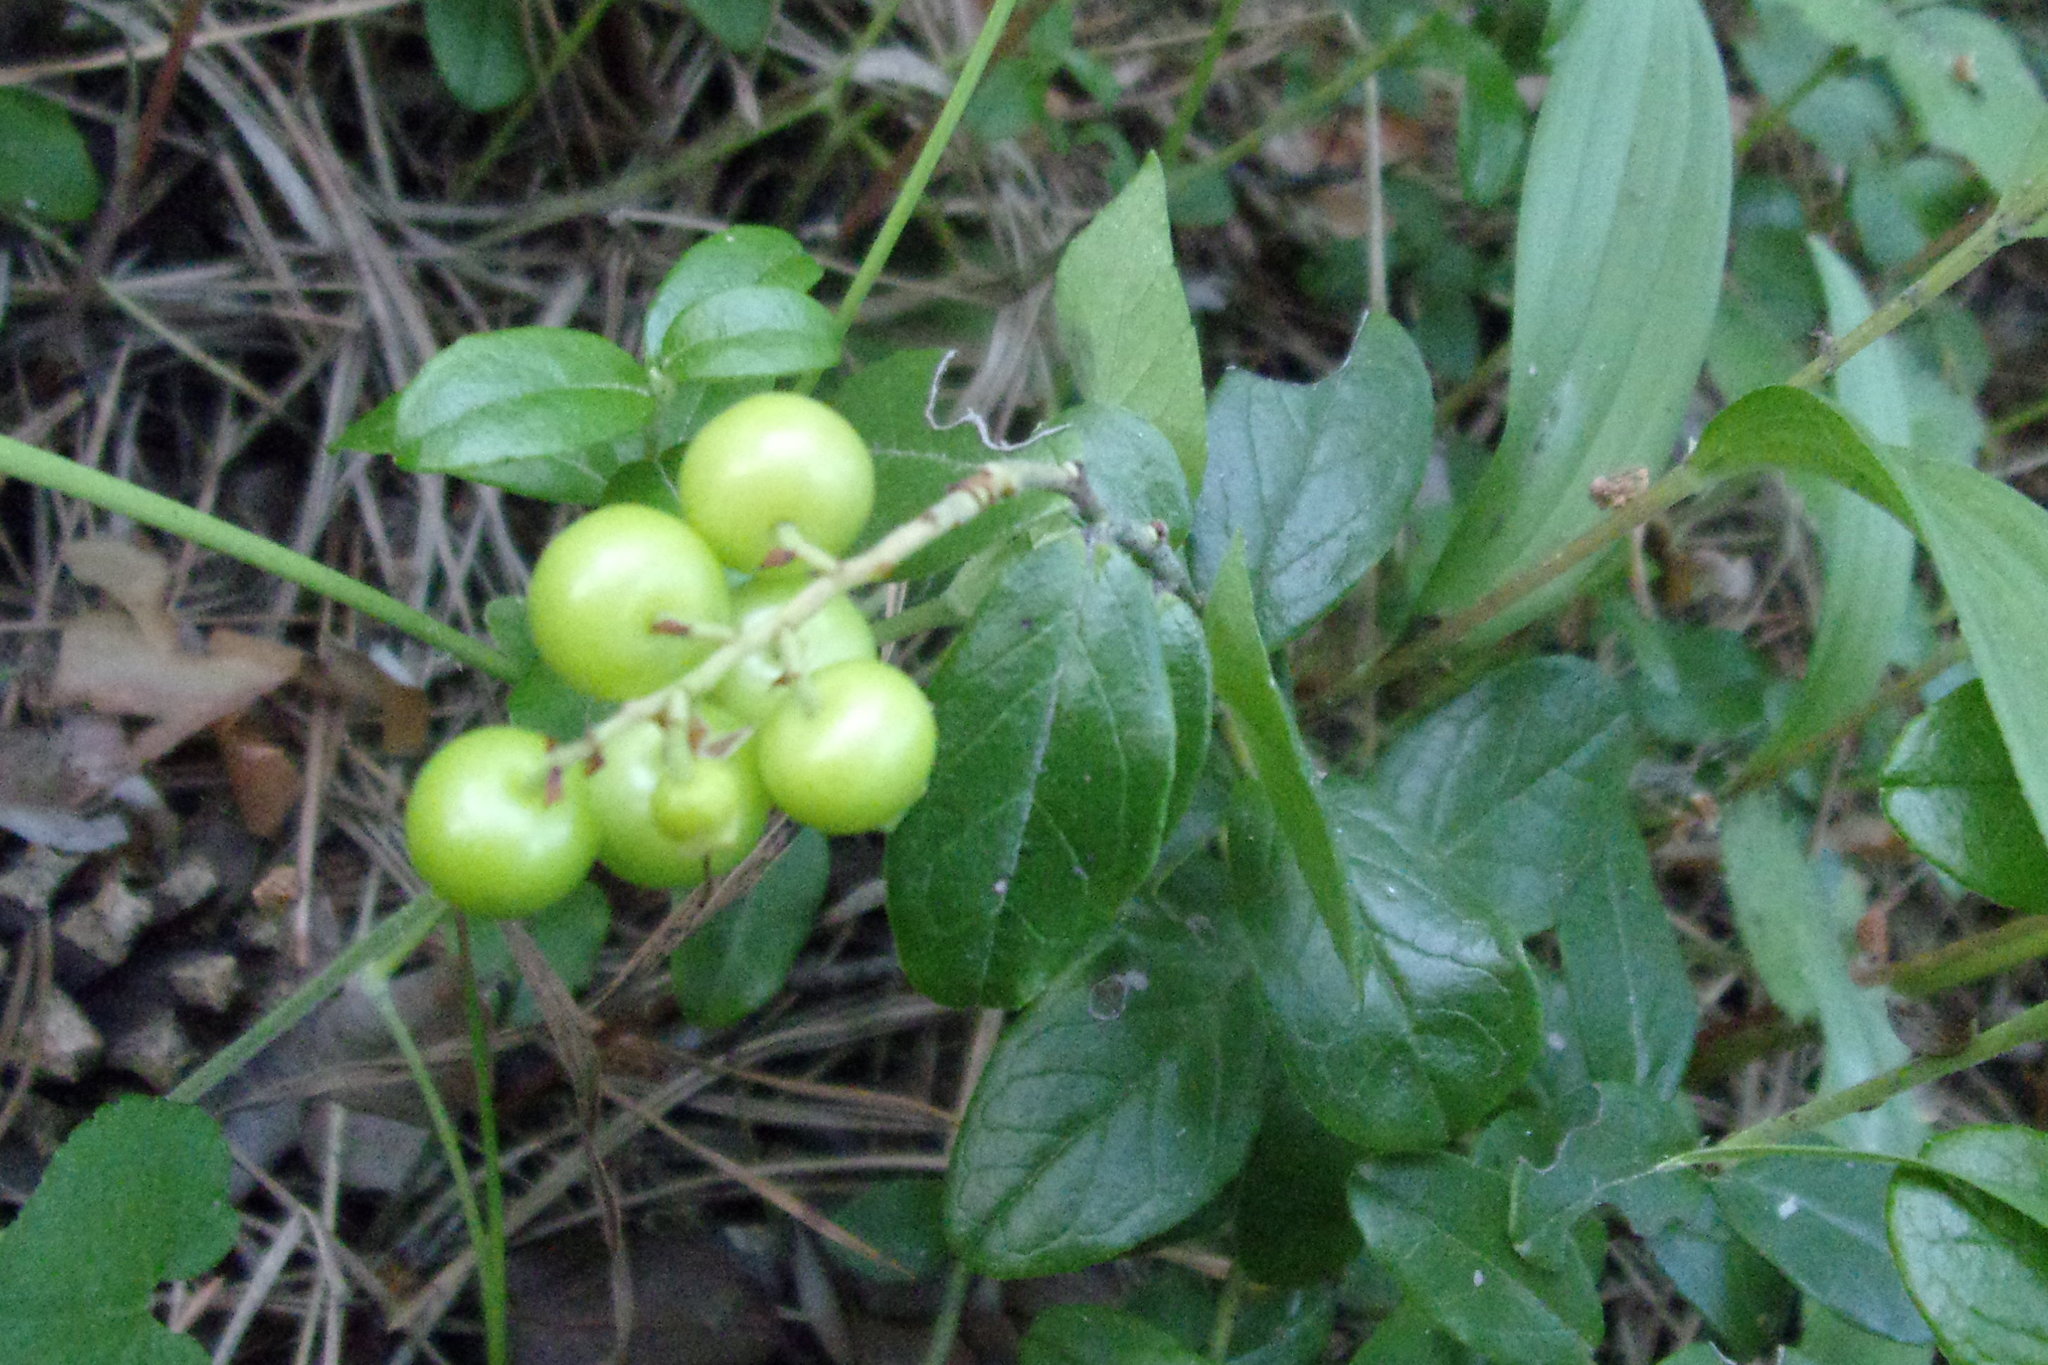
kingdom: Plantae
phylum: Tracheophyta
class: Magnoliopsida
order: Ericales
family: Ericaceae
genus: Vaccinium
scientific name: Vaccinium vitis-idaea
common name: Cowberry
